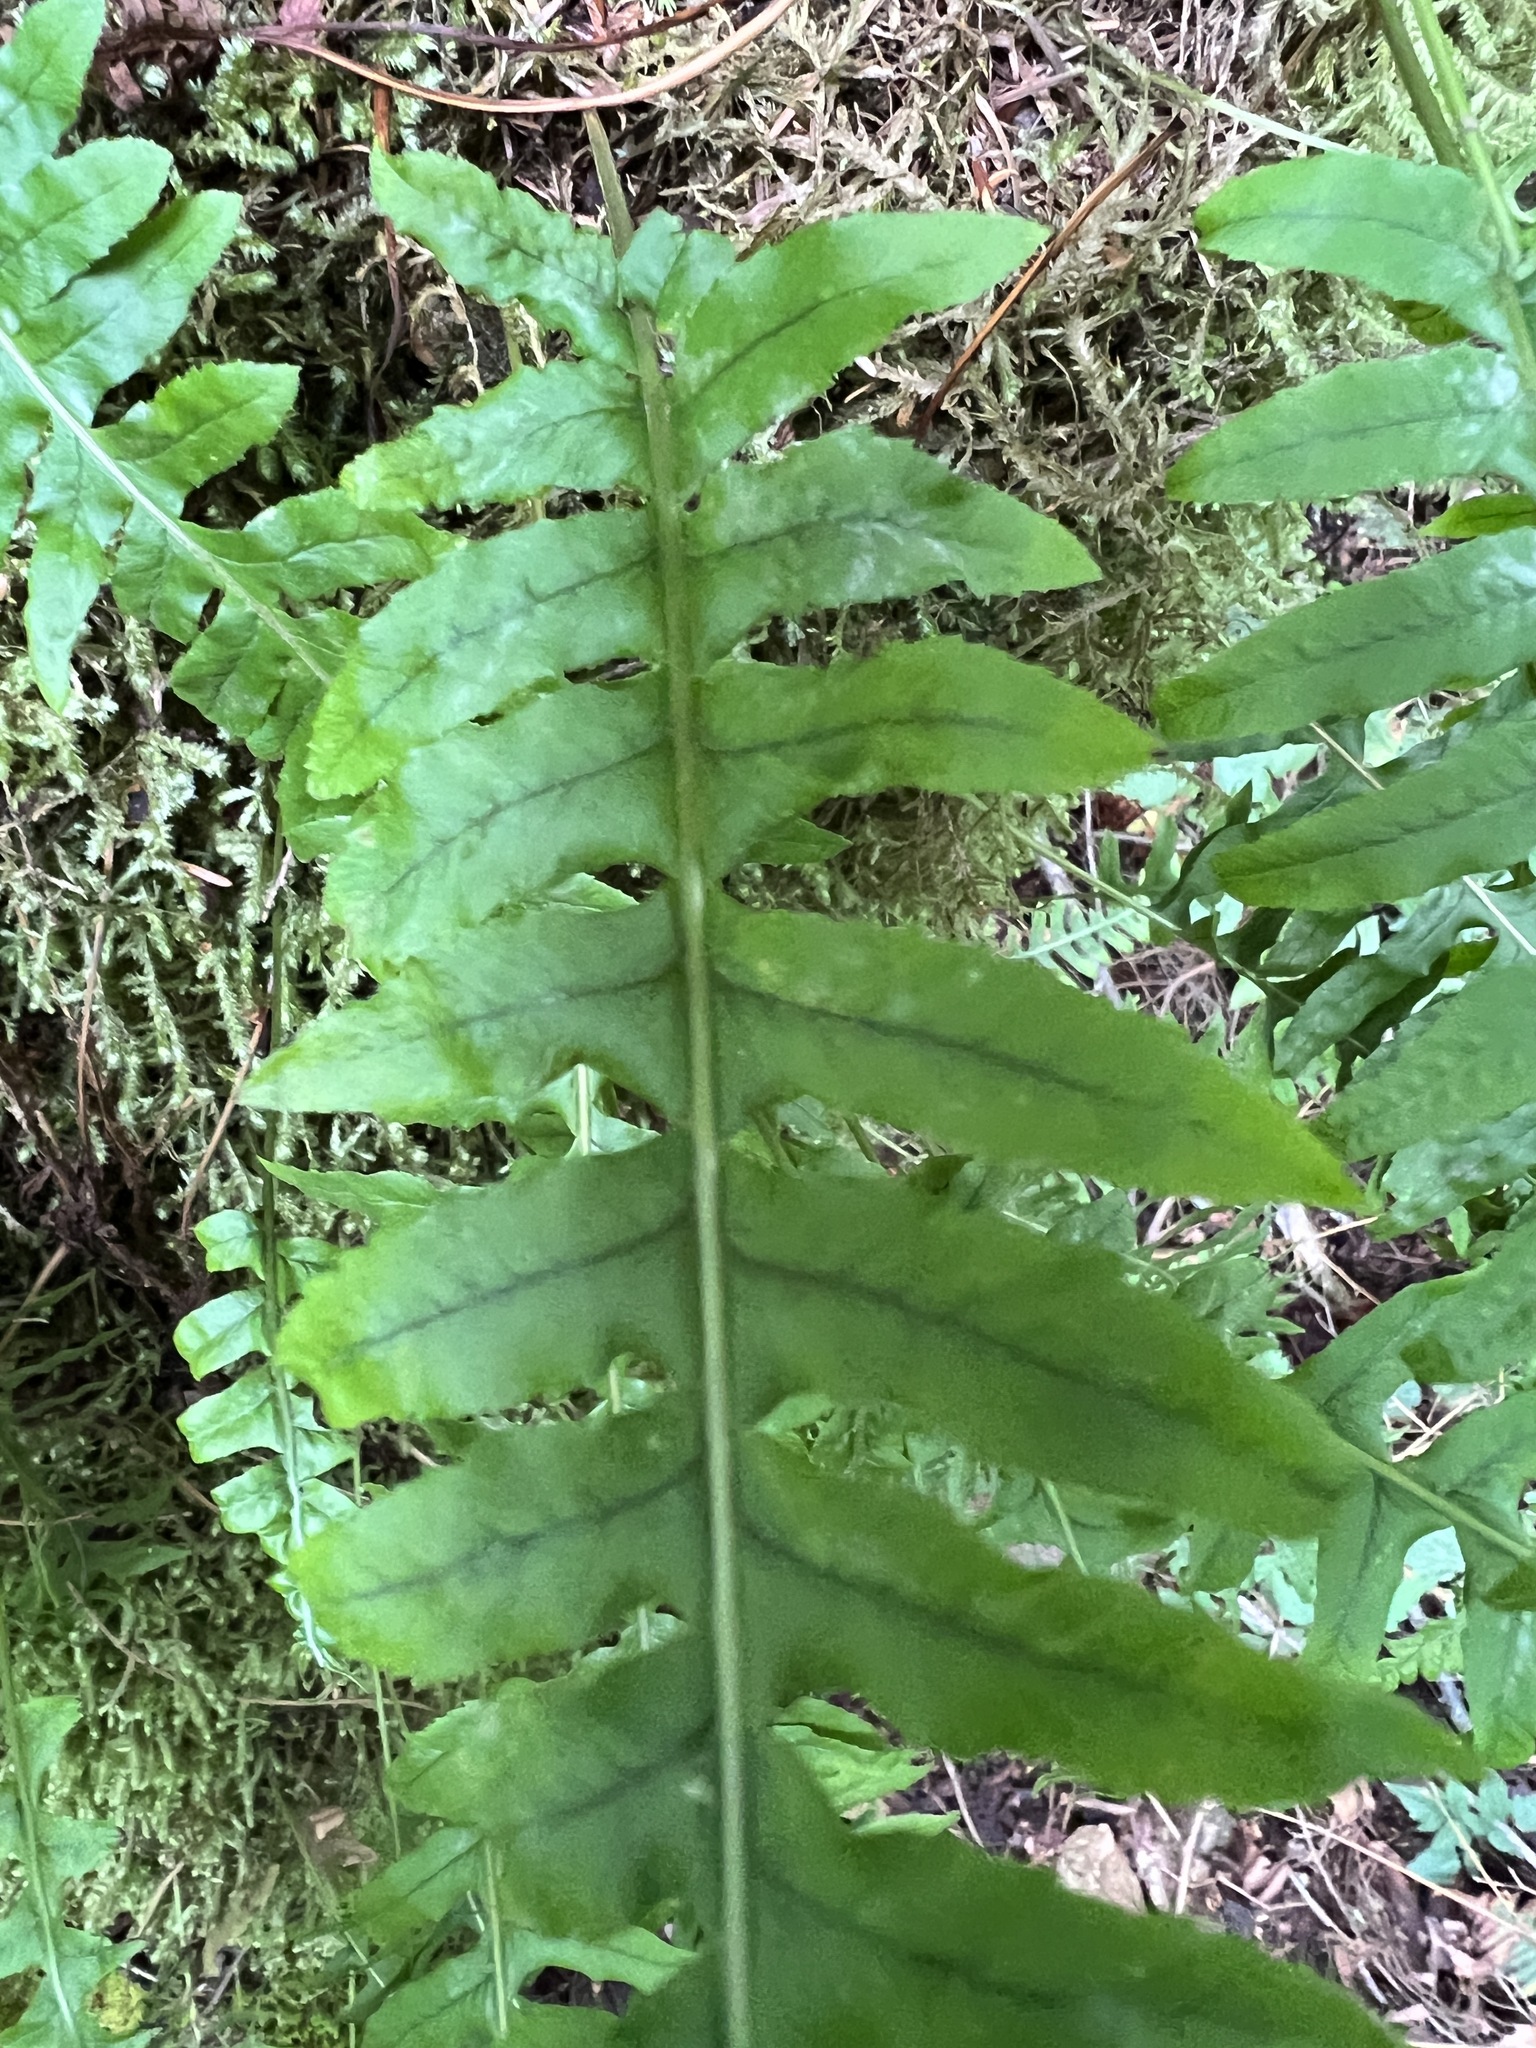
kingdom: Plantae
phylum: Tracheophyta
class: Polypodiopsida
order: Polypodiales
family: Polypodiaceae
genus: Polypodium
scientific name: Polypodium glycyrrhiza
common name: Licorice fern
